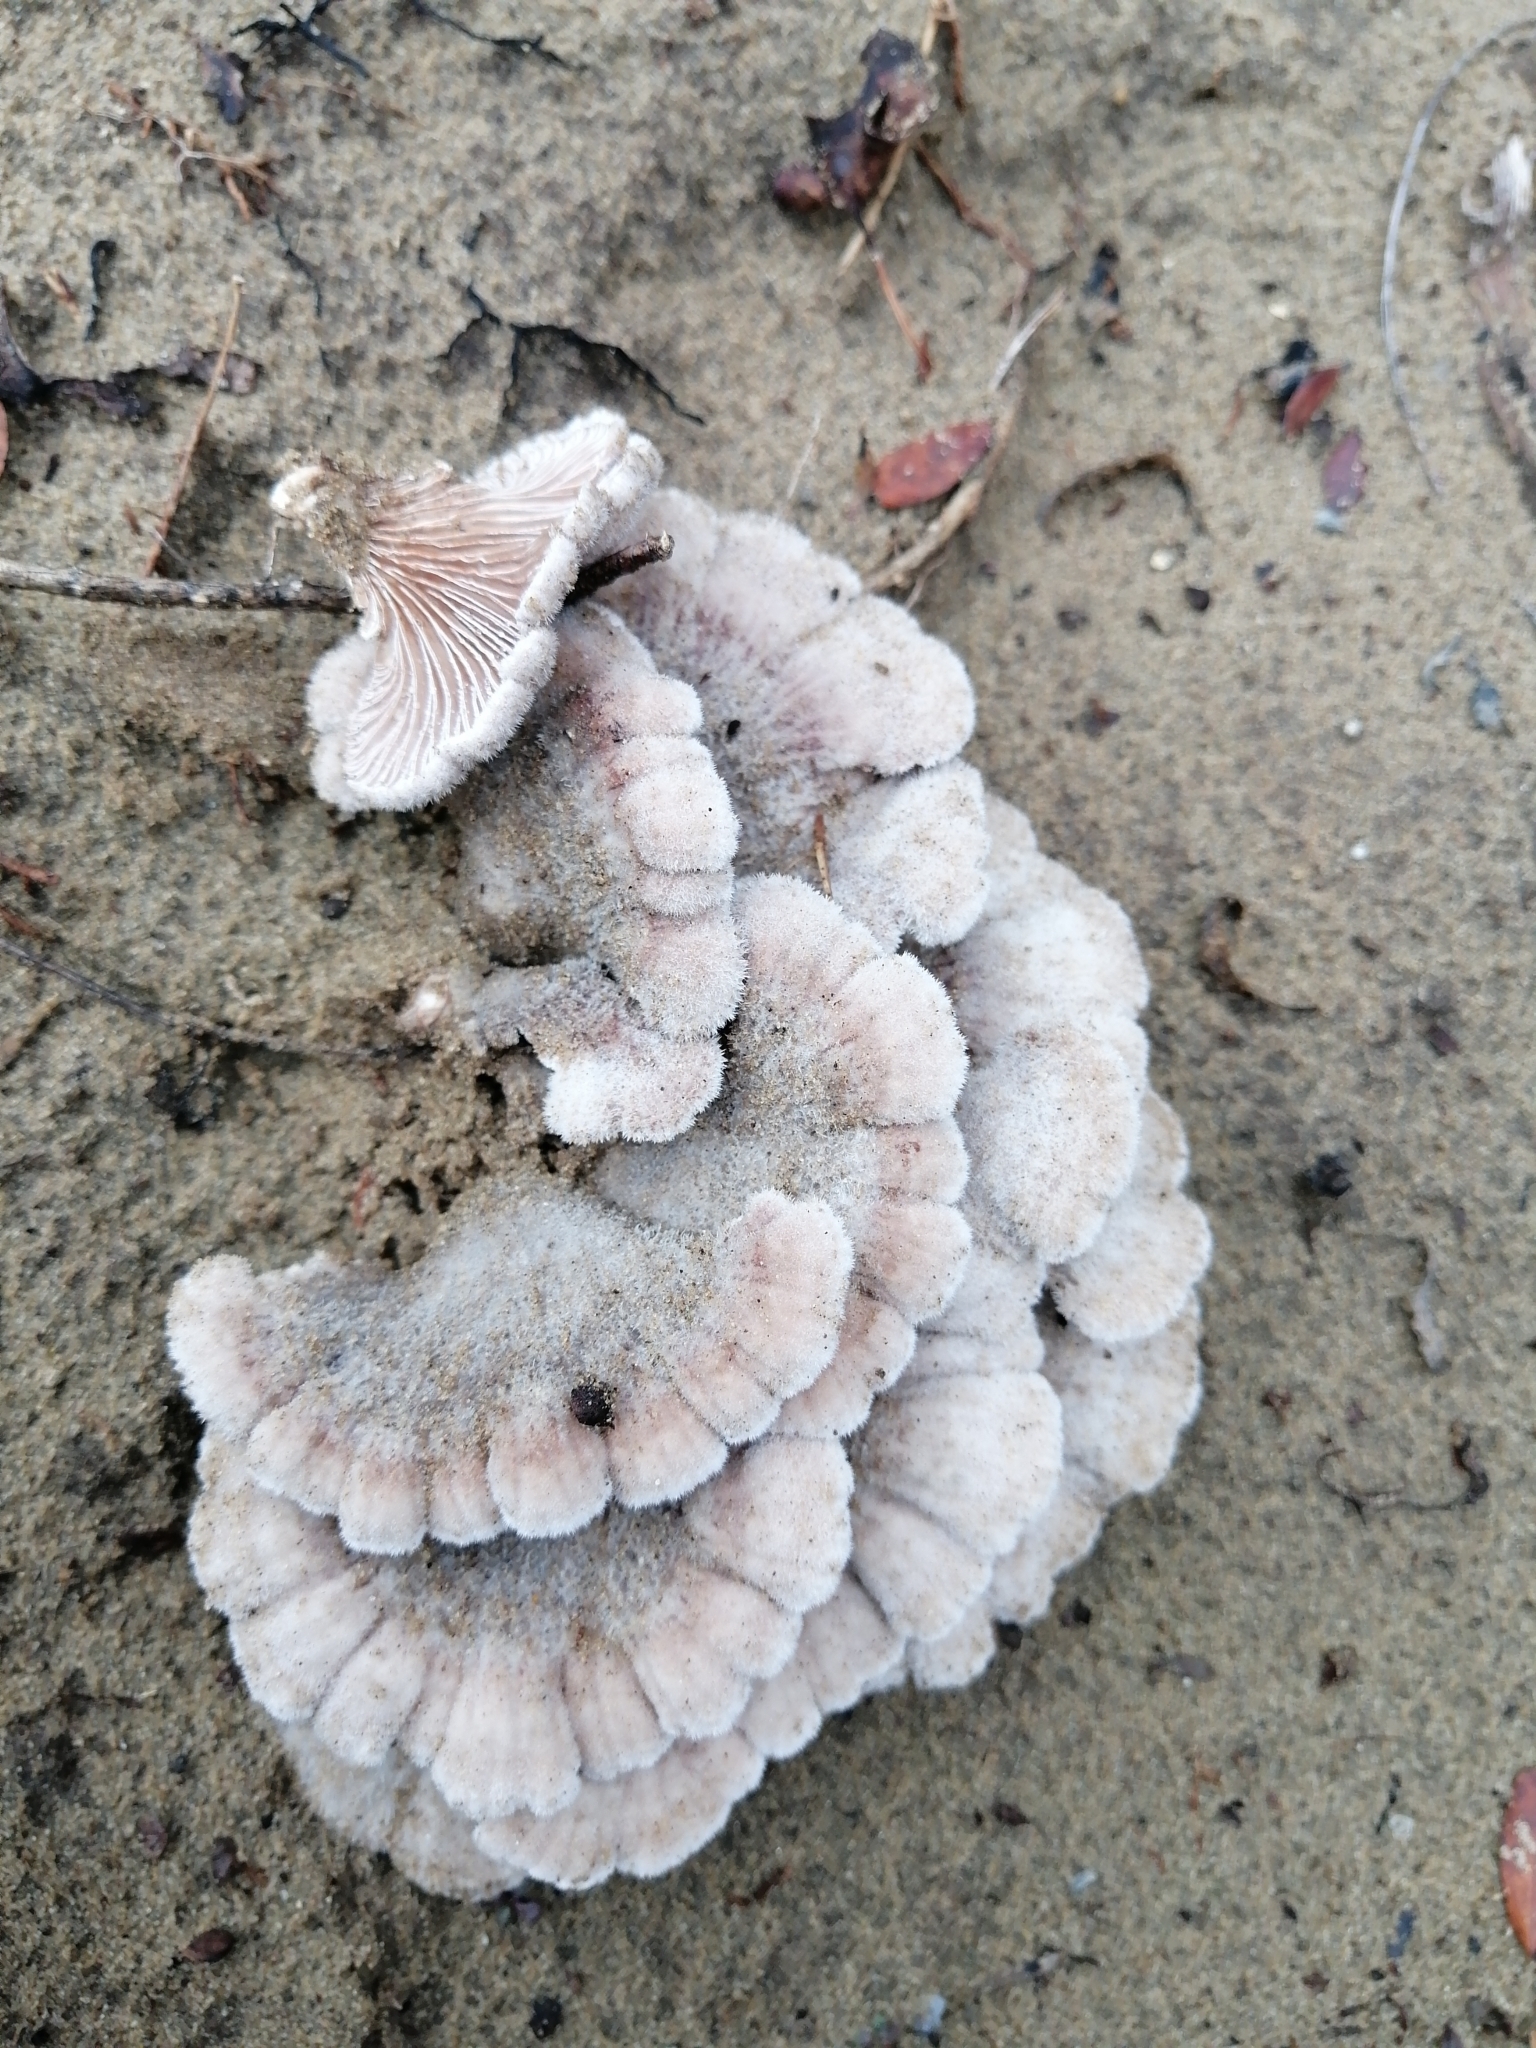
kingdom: Fungi
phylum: Basidiomycota
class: Agaricomycetes
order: Agaricales
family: Schizophyllaceae
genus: Schizophyllum
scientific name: Schizophyllum commune
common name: Common porecrust
